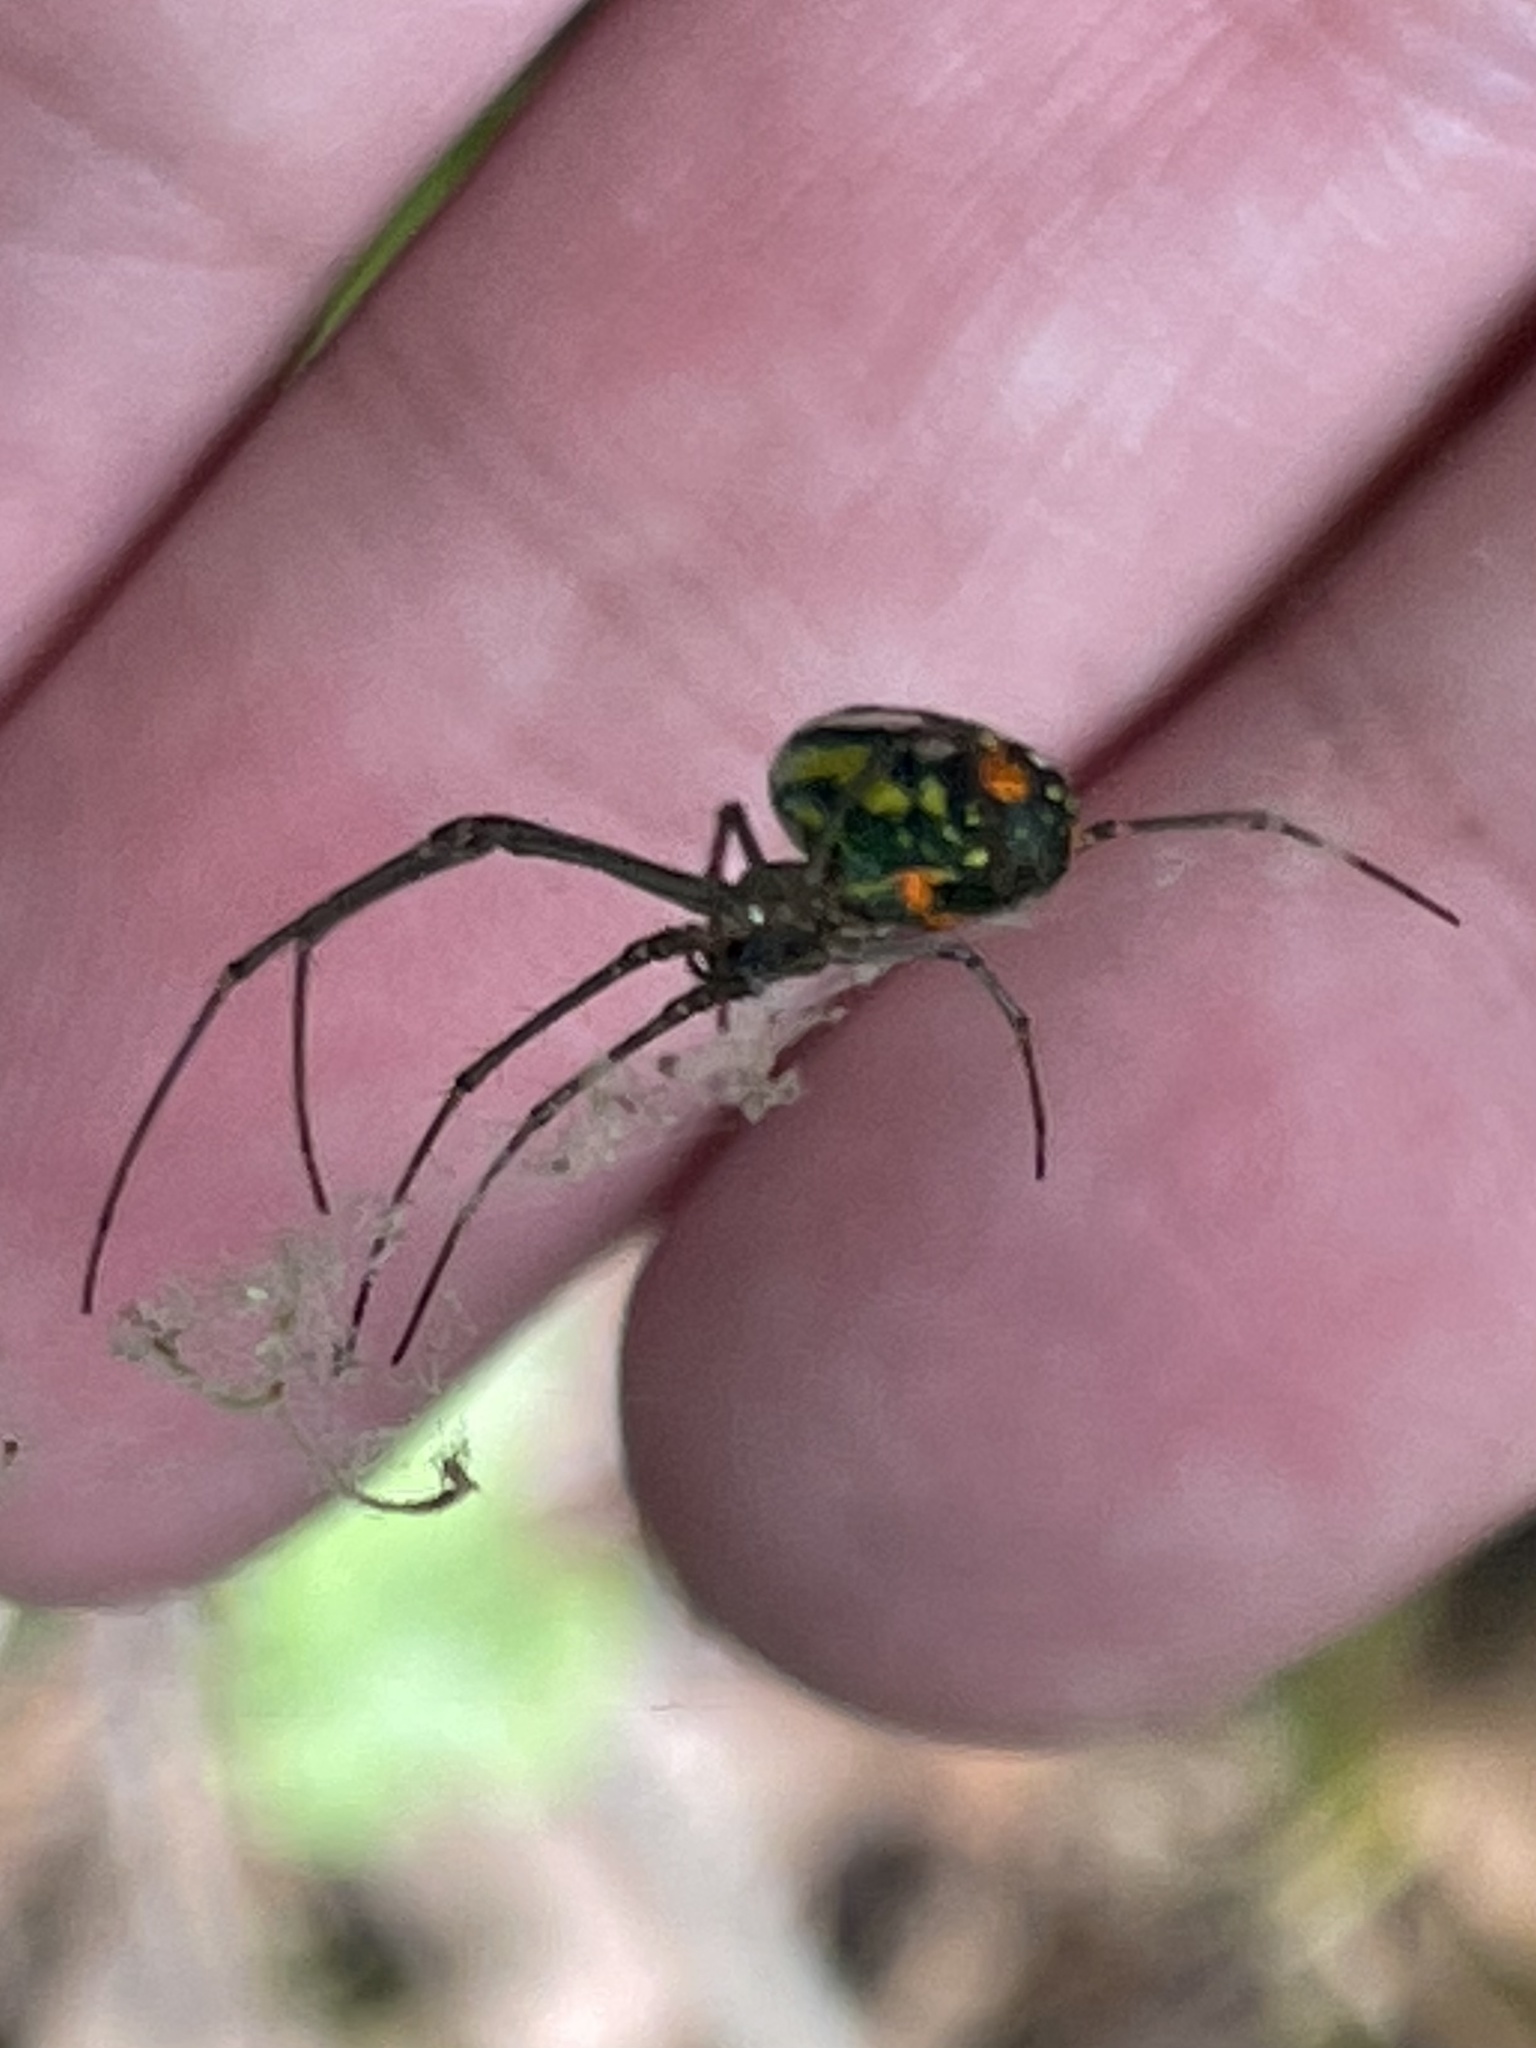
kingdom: Animalia
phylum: Arthropoda
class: Arachnida
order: Araneae
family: Tetragnathidae
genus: Leucauge
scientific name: Leucauge argyrobapta
